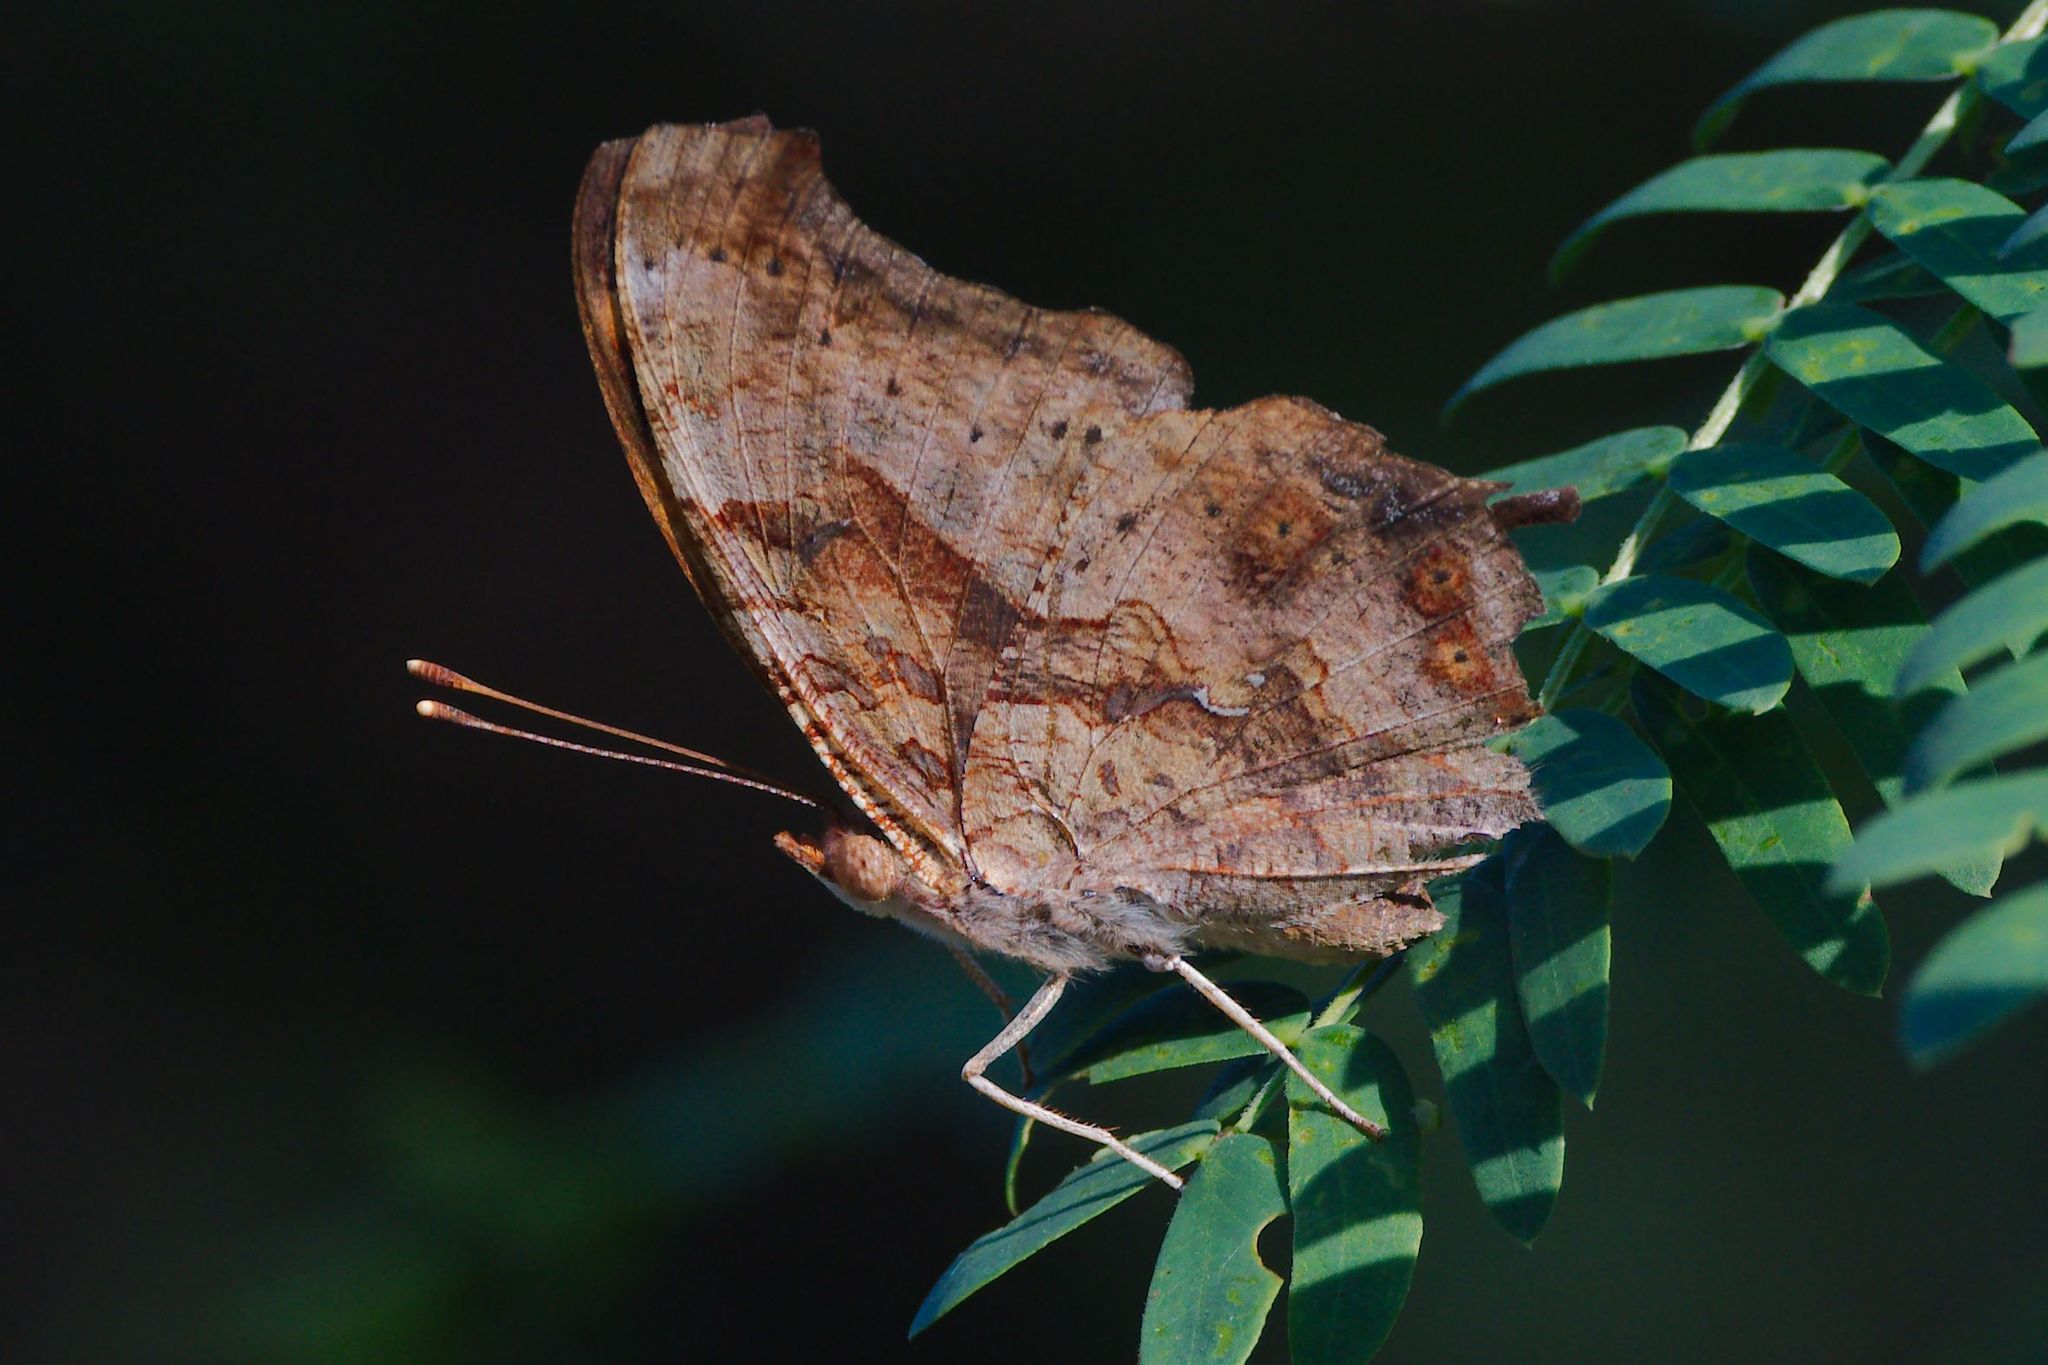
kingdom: Animalia
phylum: Arthropoda
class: Insecta
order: Lepidoptera
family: Nymphalidae
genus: Polygonia
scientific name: Polygonia interrogationis
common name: Question mark
